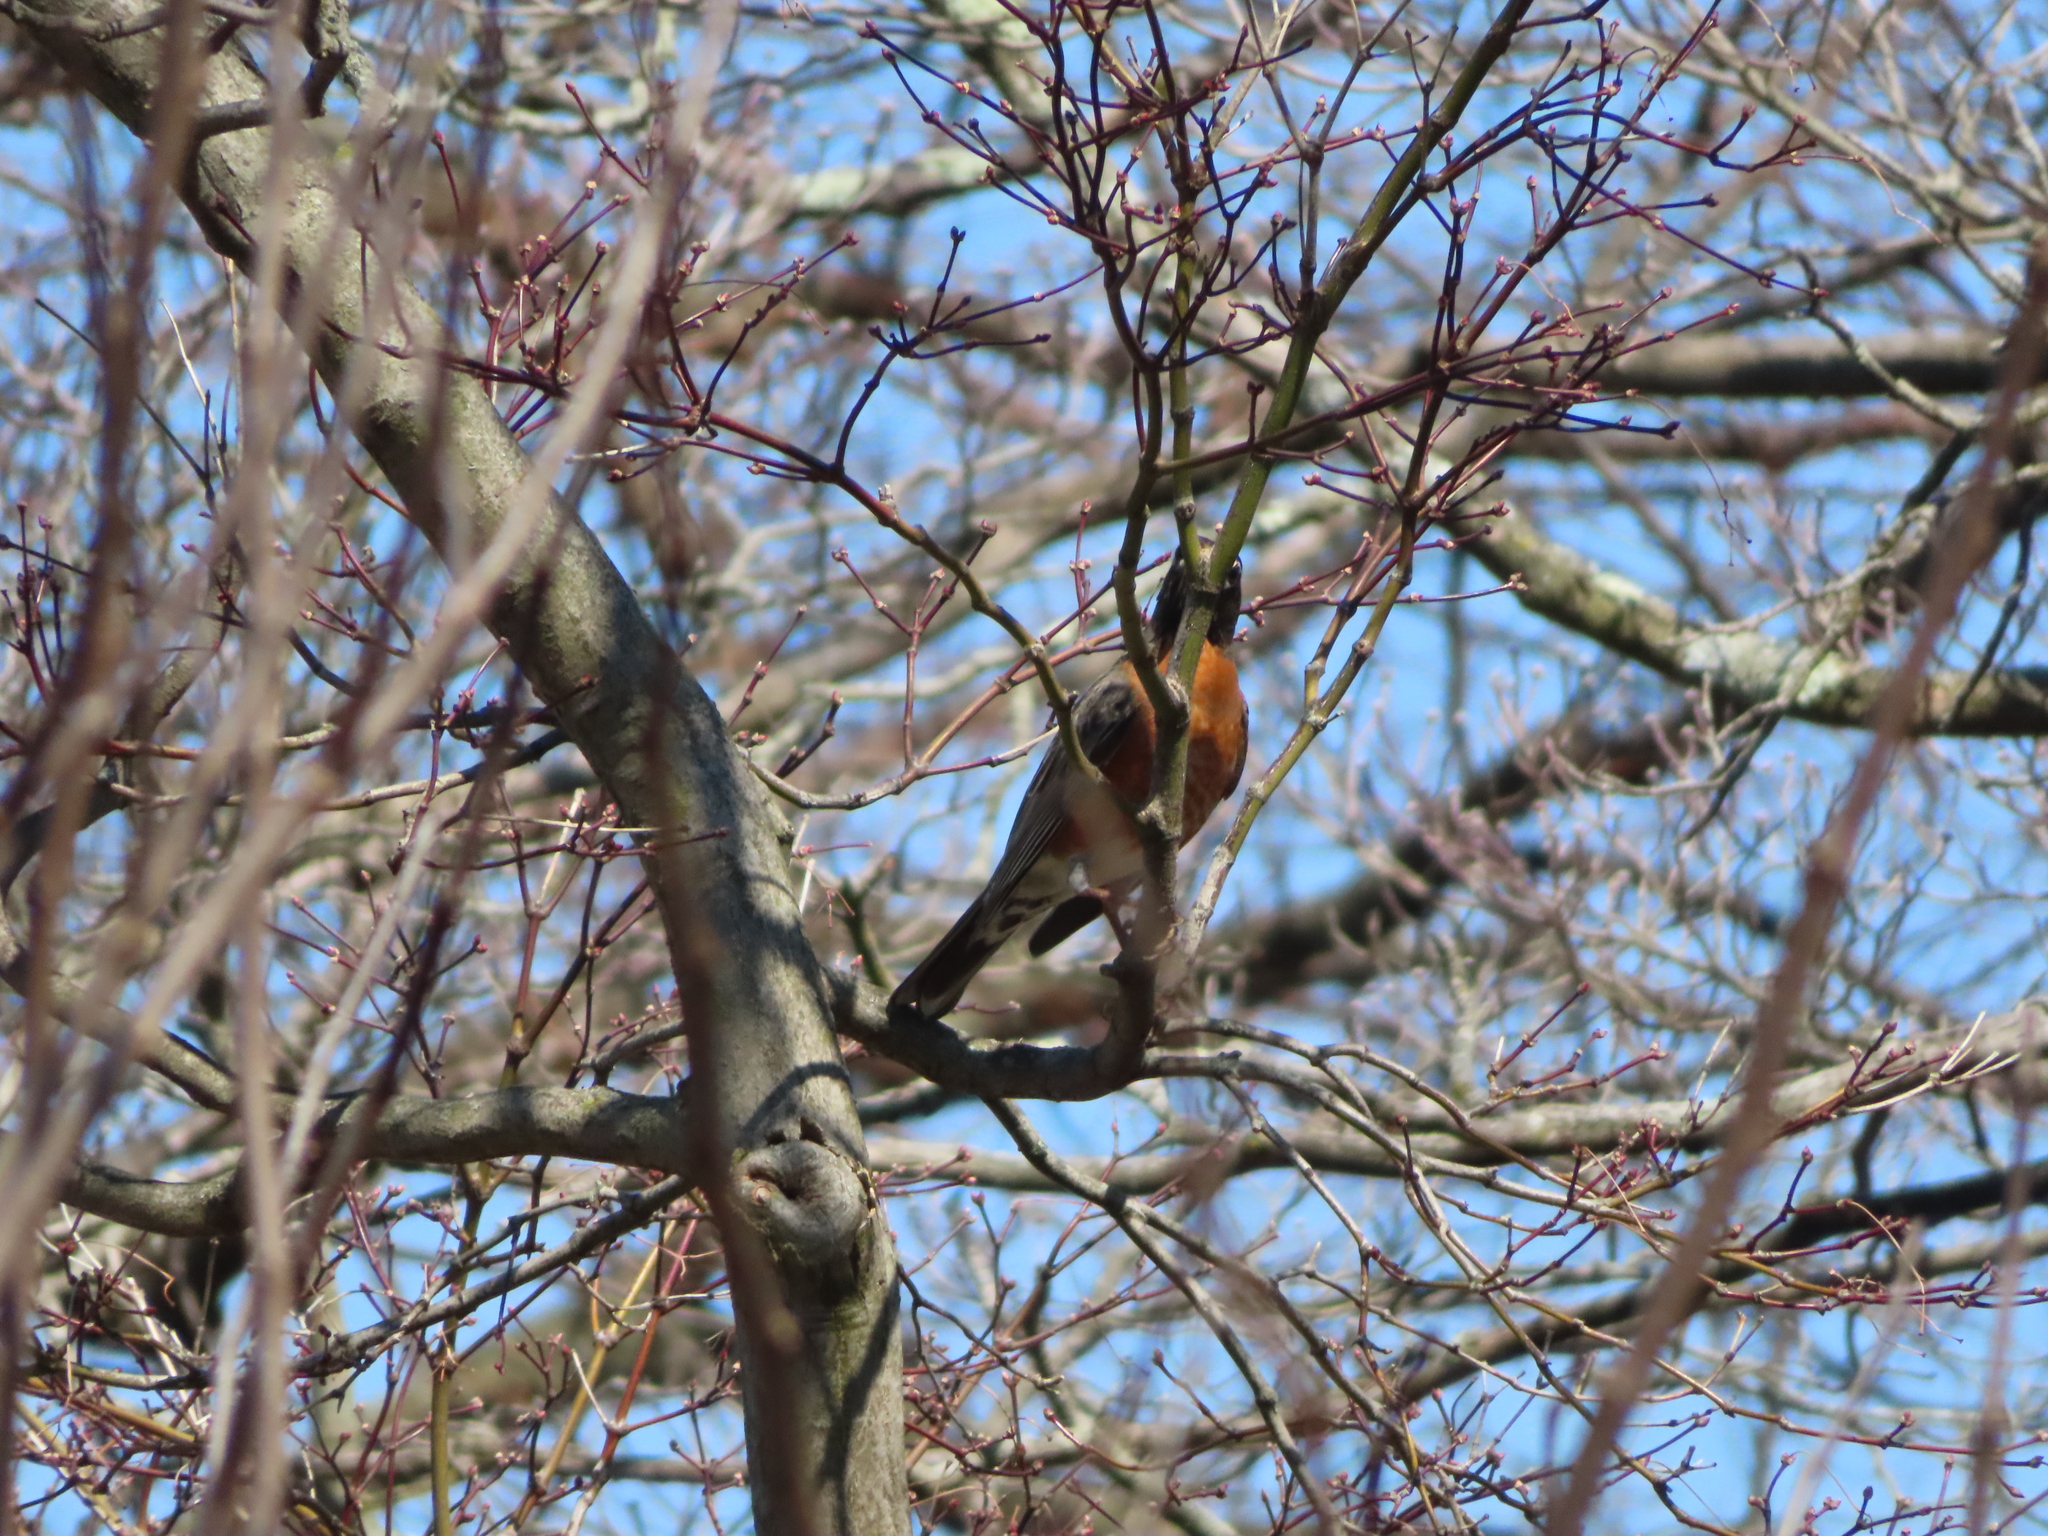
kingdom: Animalia
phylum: Chordata
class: Aves
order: Passeriformes
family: Turdidae
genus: Turdus
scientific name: Turdus migratorius
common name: American robin
